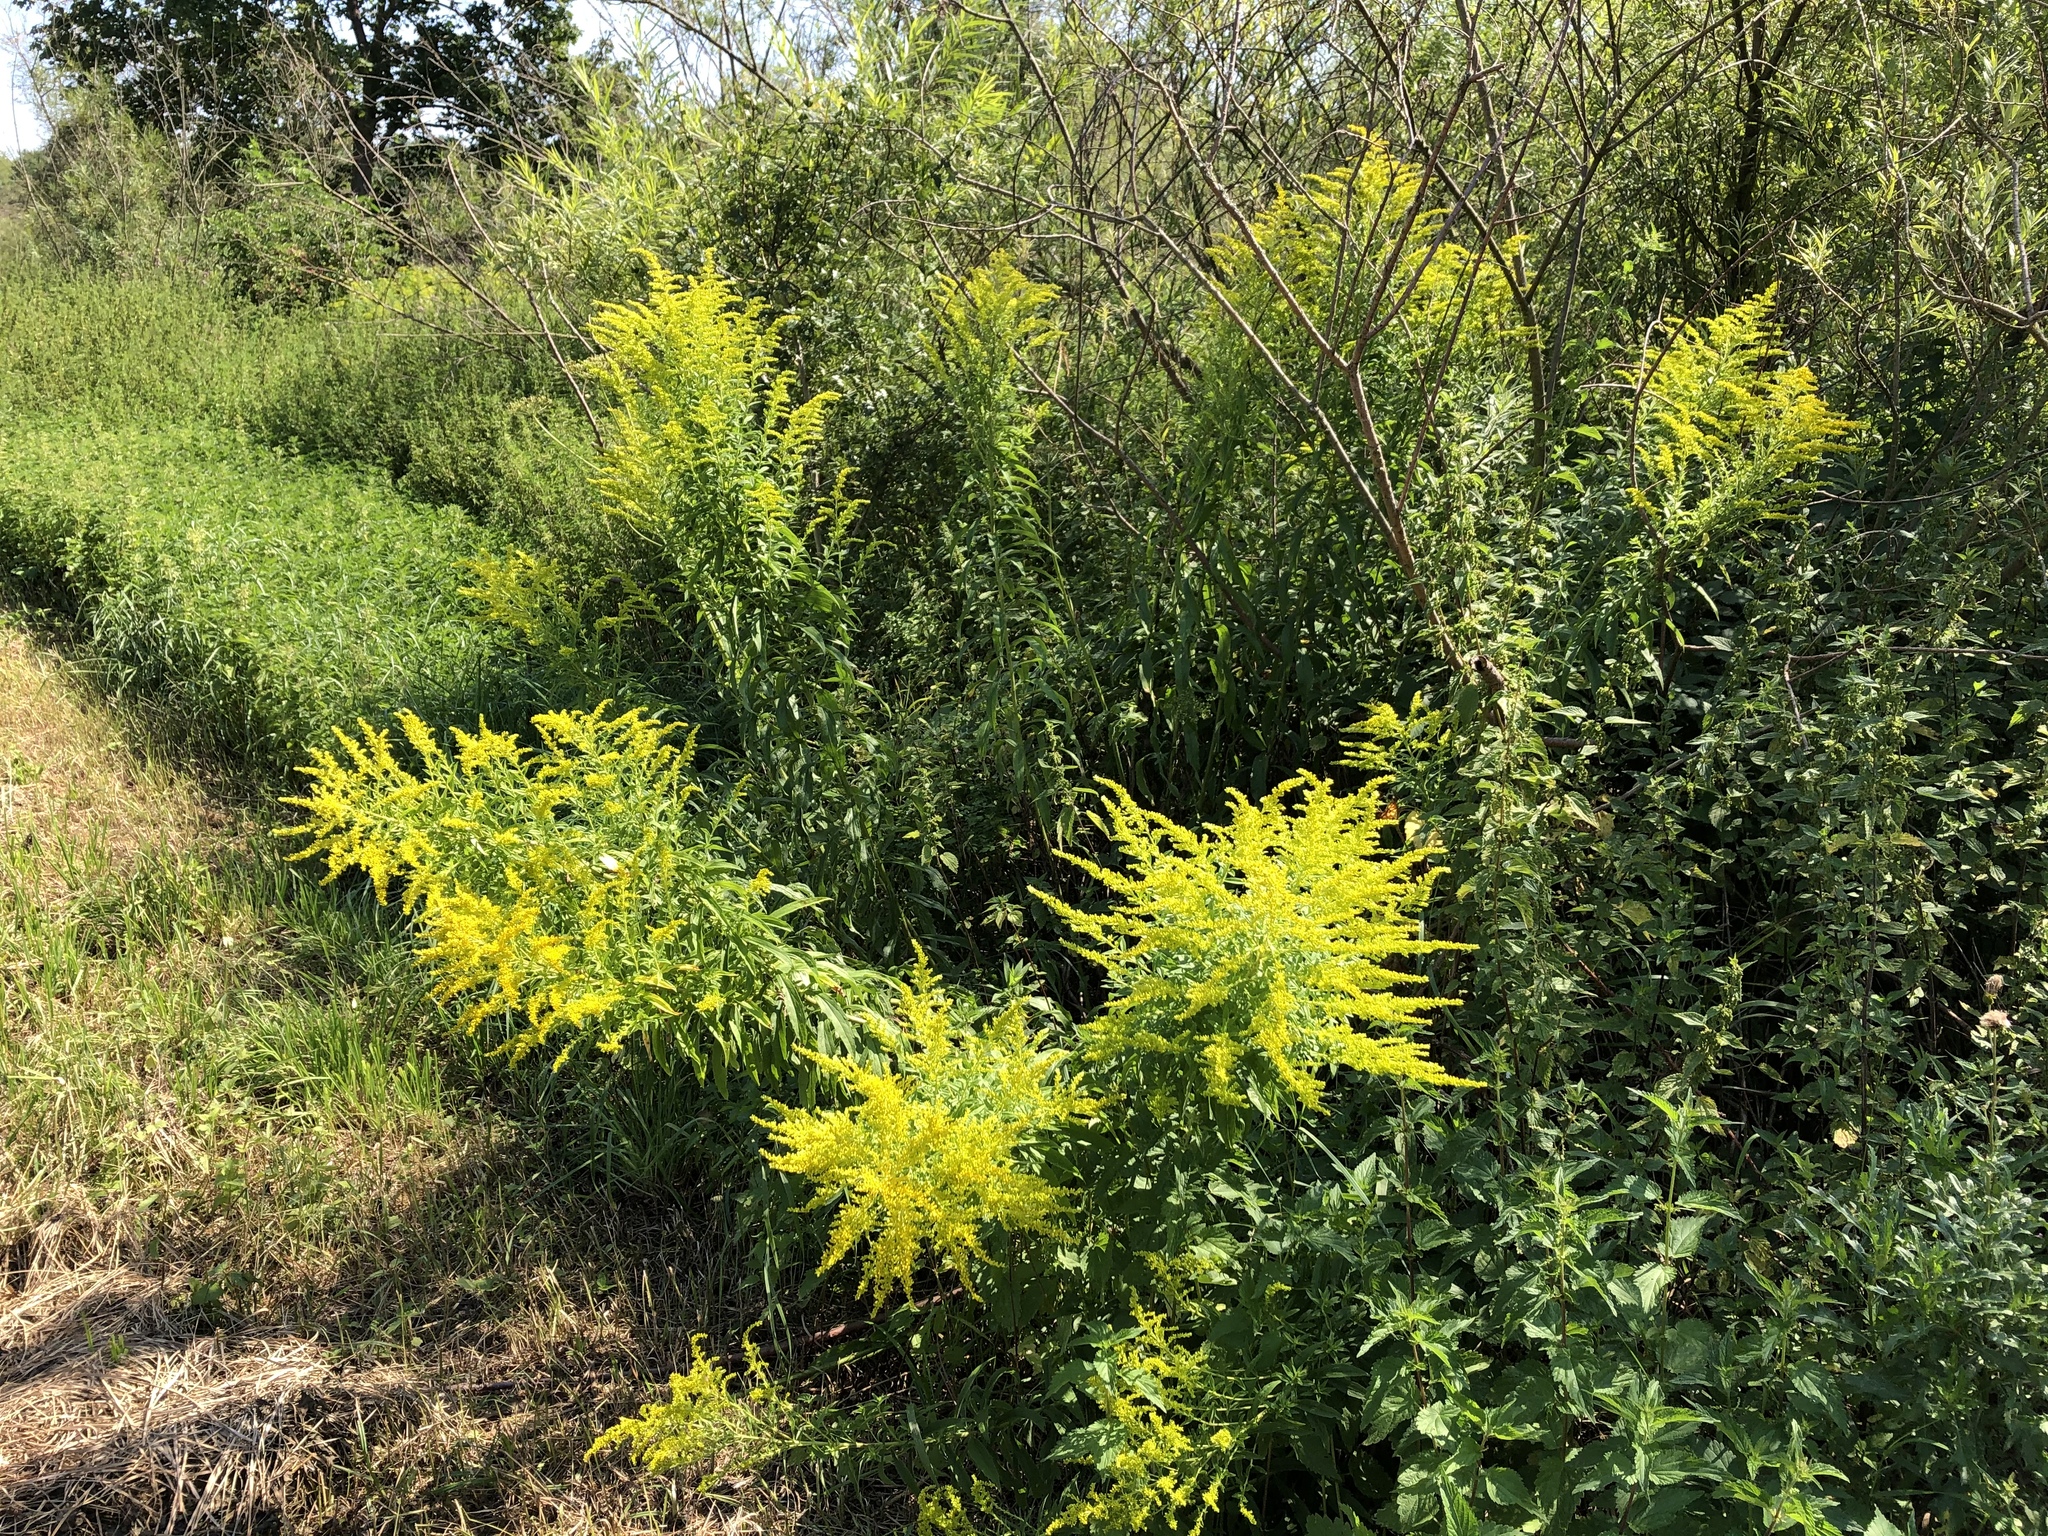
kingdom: Plantae
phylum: Tracheophyta
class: Magnoliopsida
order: Asterales
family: Asteraceae
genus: Solidago
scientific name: Solidago canadensis
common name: Canada goldenrod
